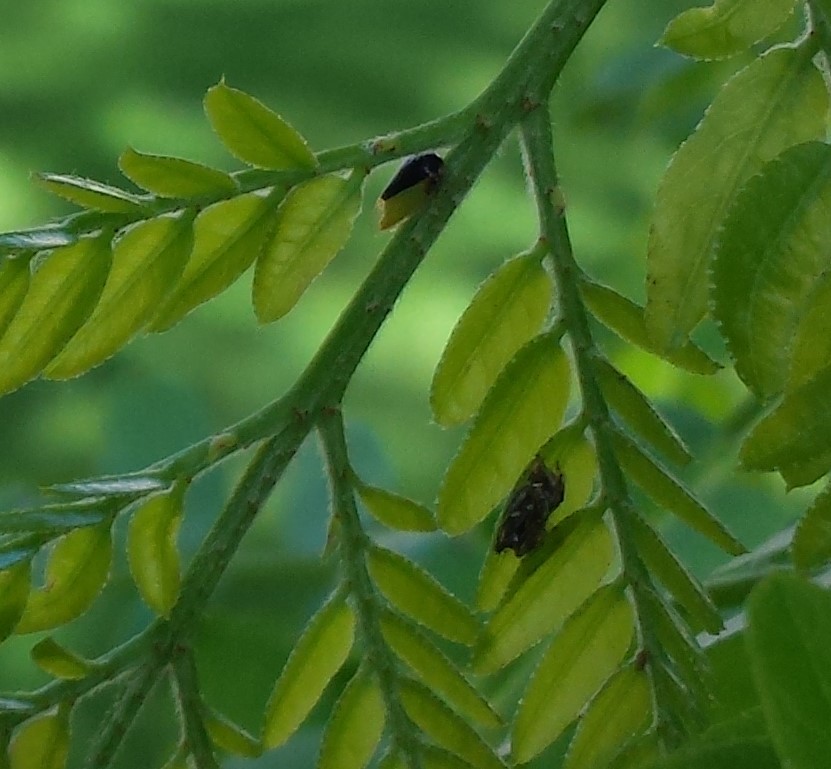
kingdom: Animalia
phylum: Arthropoda
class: Insecta
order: Hemiptera
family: Membracidae
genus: Micrutalis
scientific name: Micrutalis calva
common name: Honeylocust treehopper
